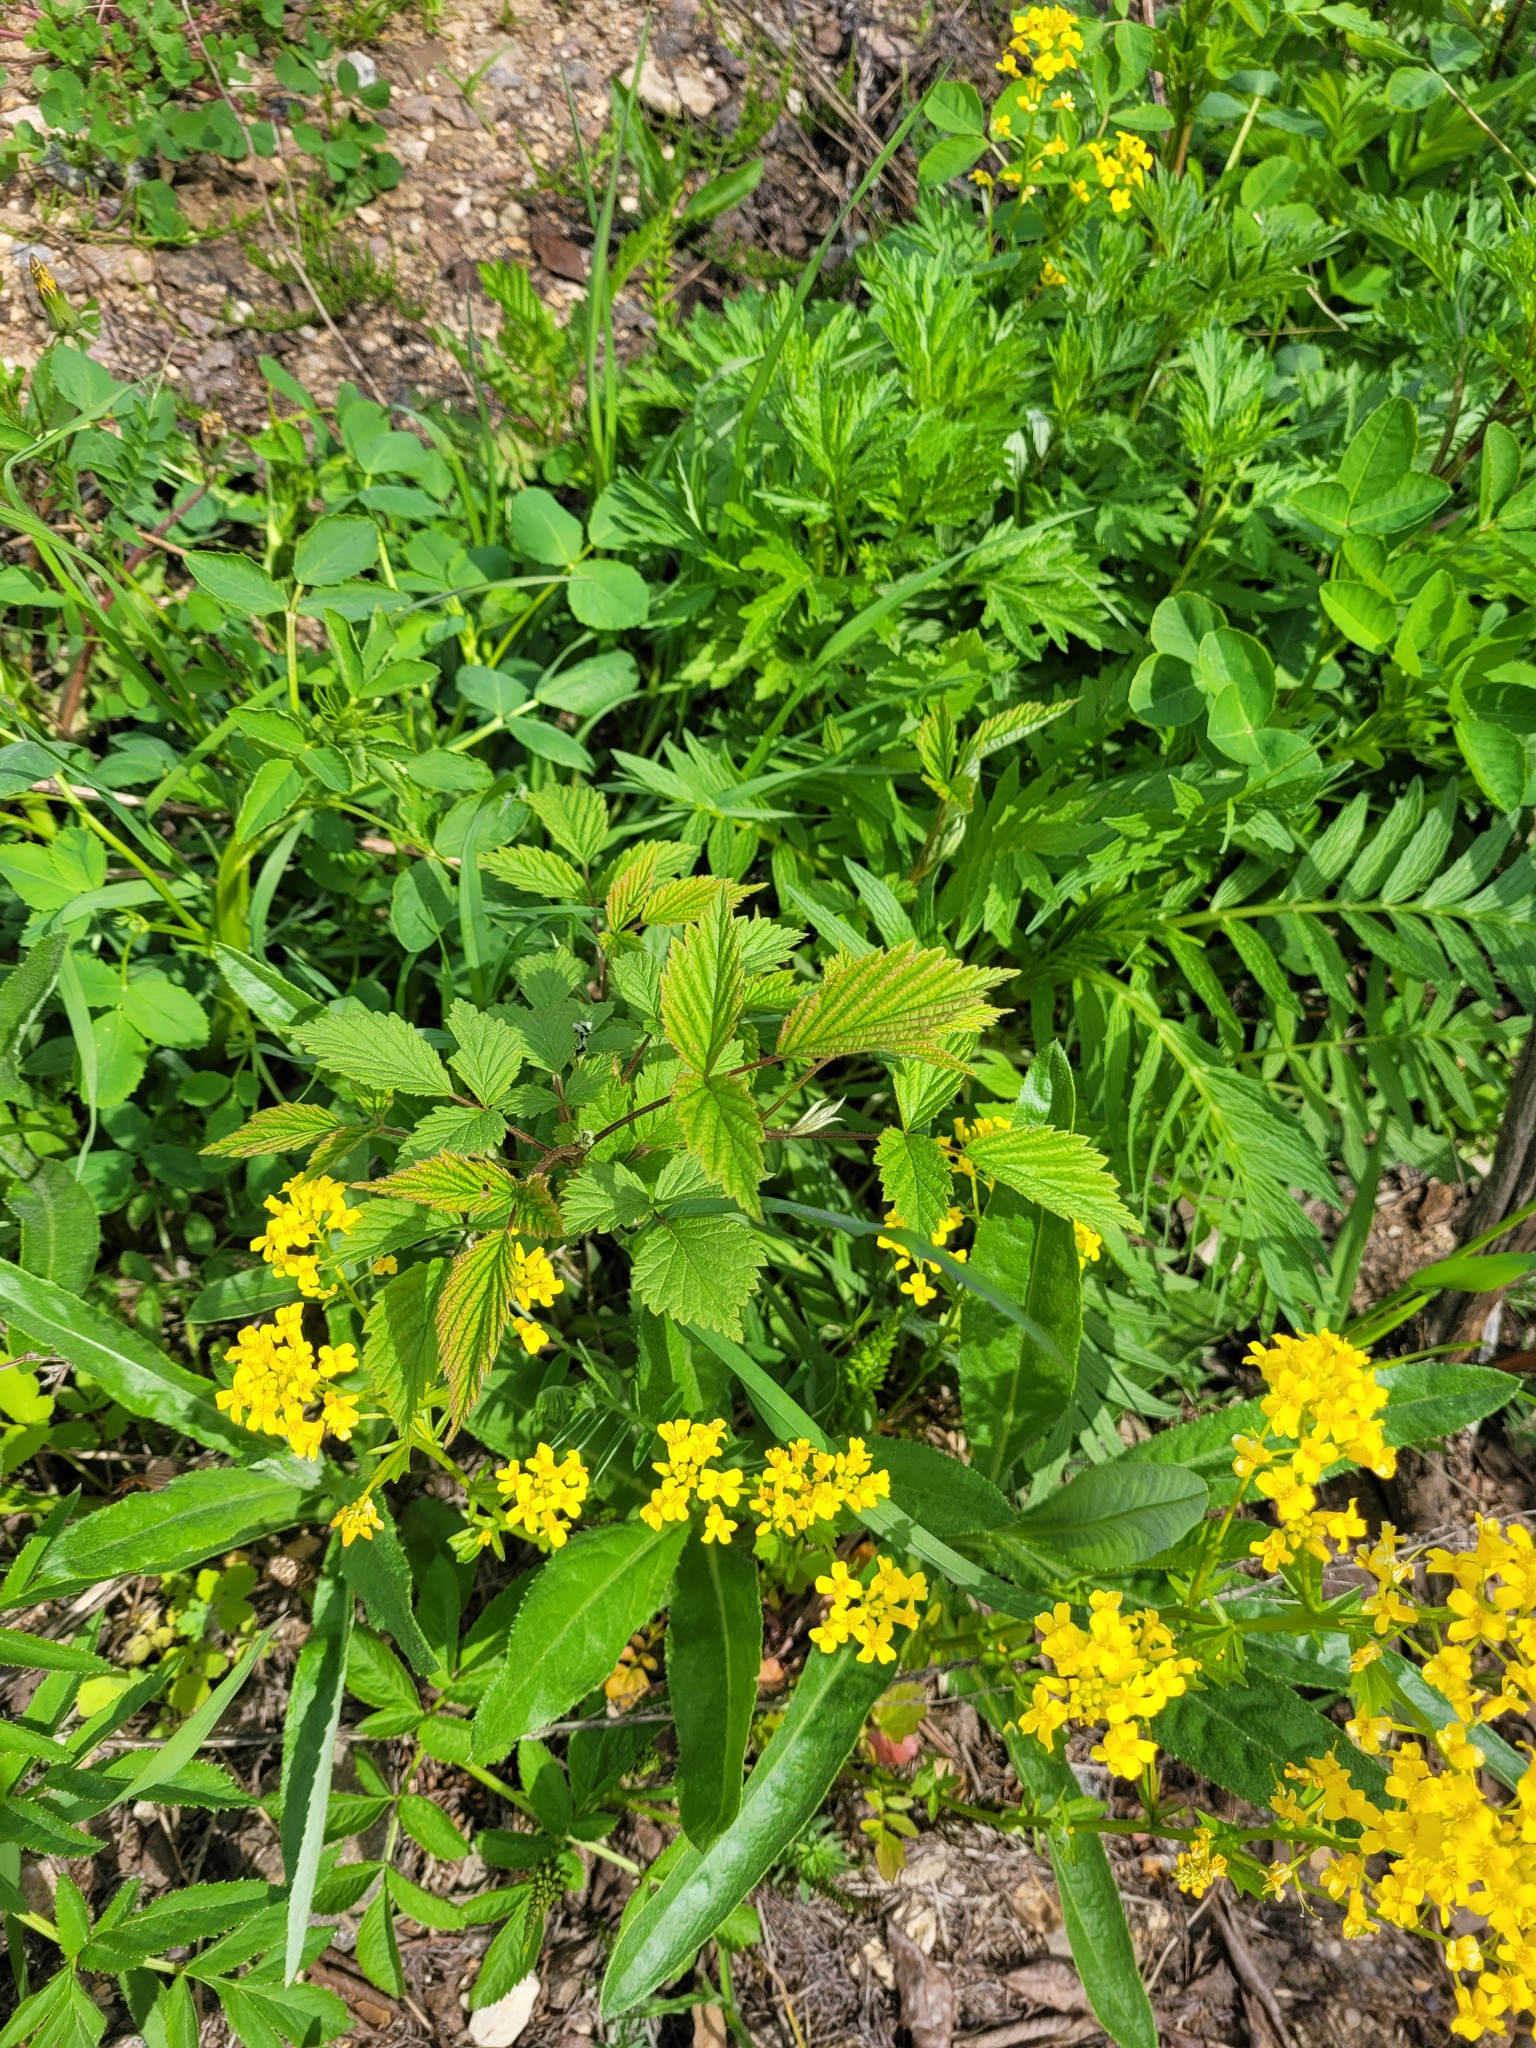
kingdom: Plantae
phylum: Tracheophyta
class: Magnoliopsida
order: Rosales
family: Rosaceae
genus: Rubus
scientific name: Rubus idaeus
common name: Raspberry
